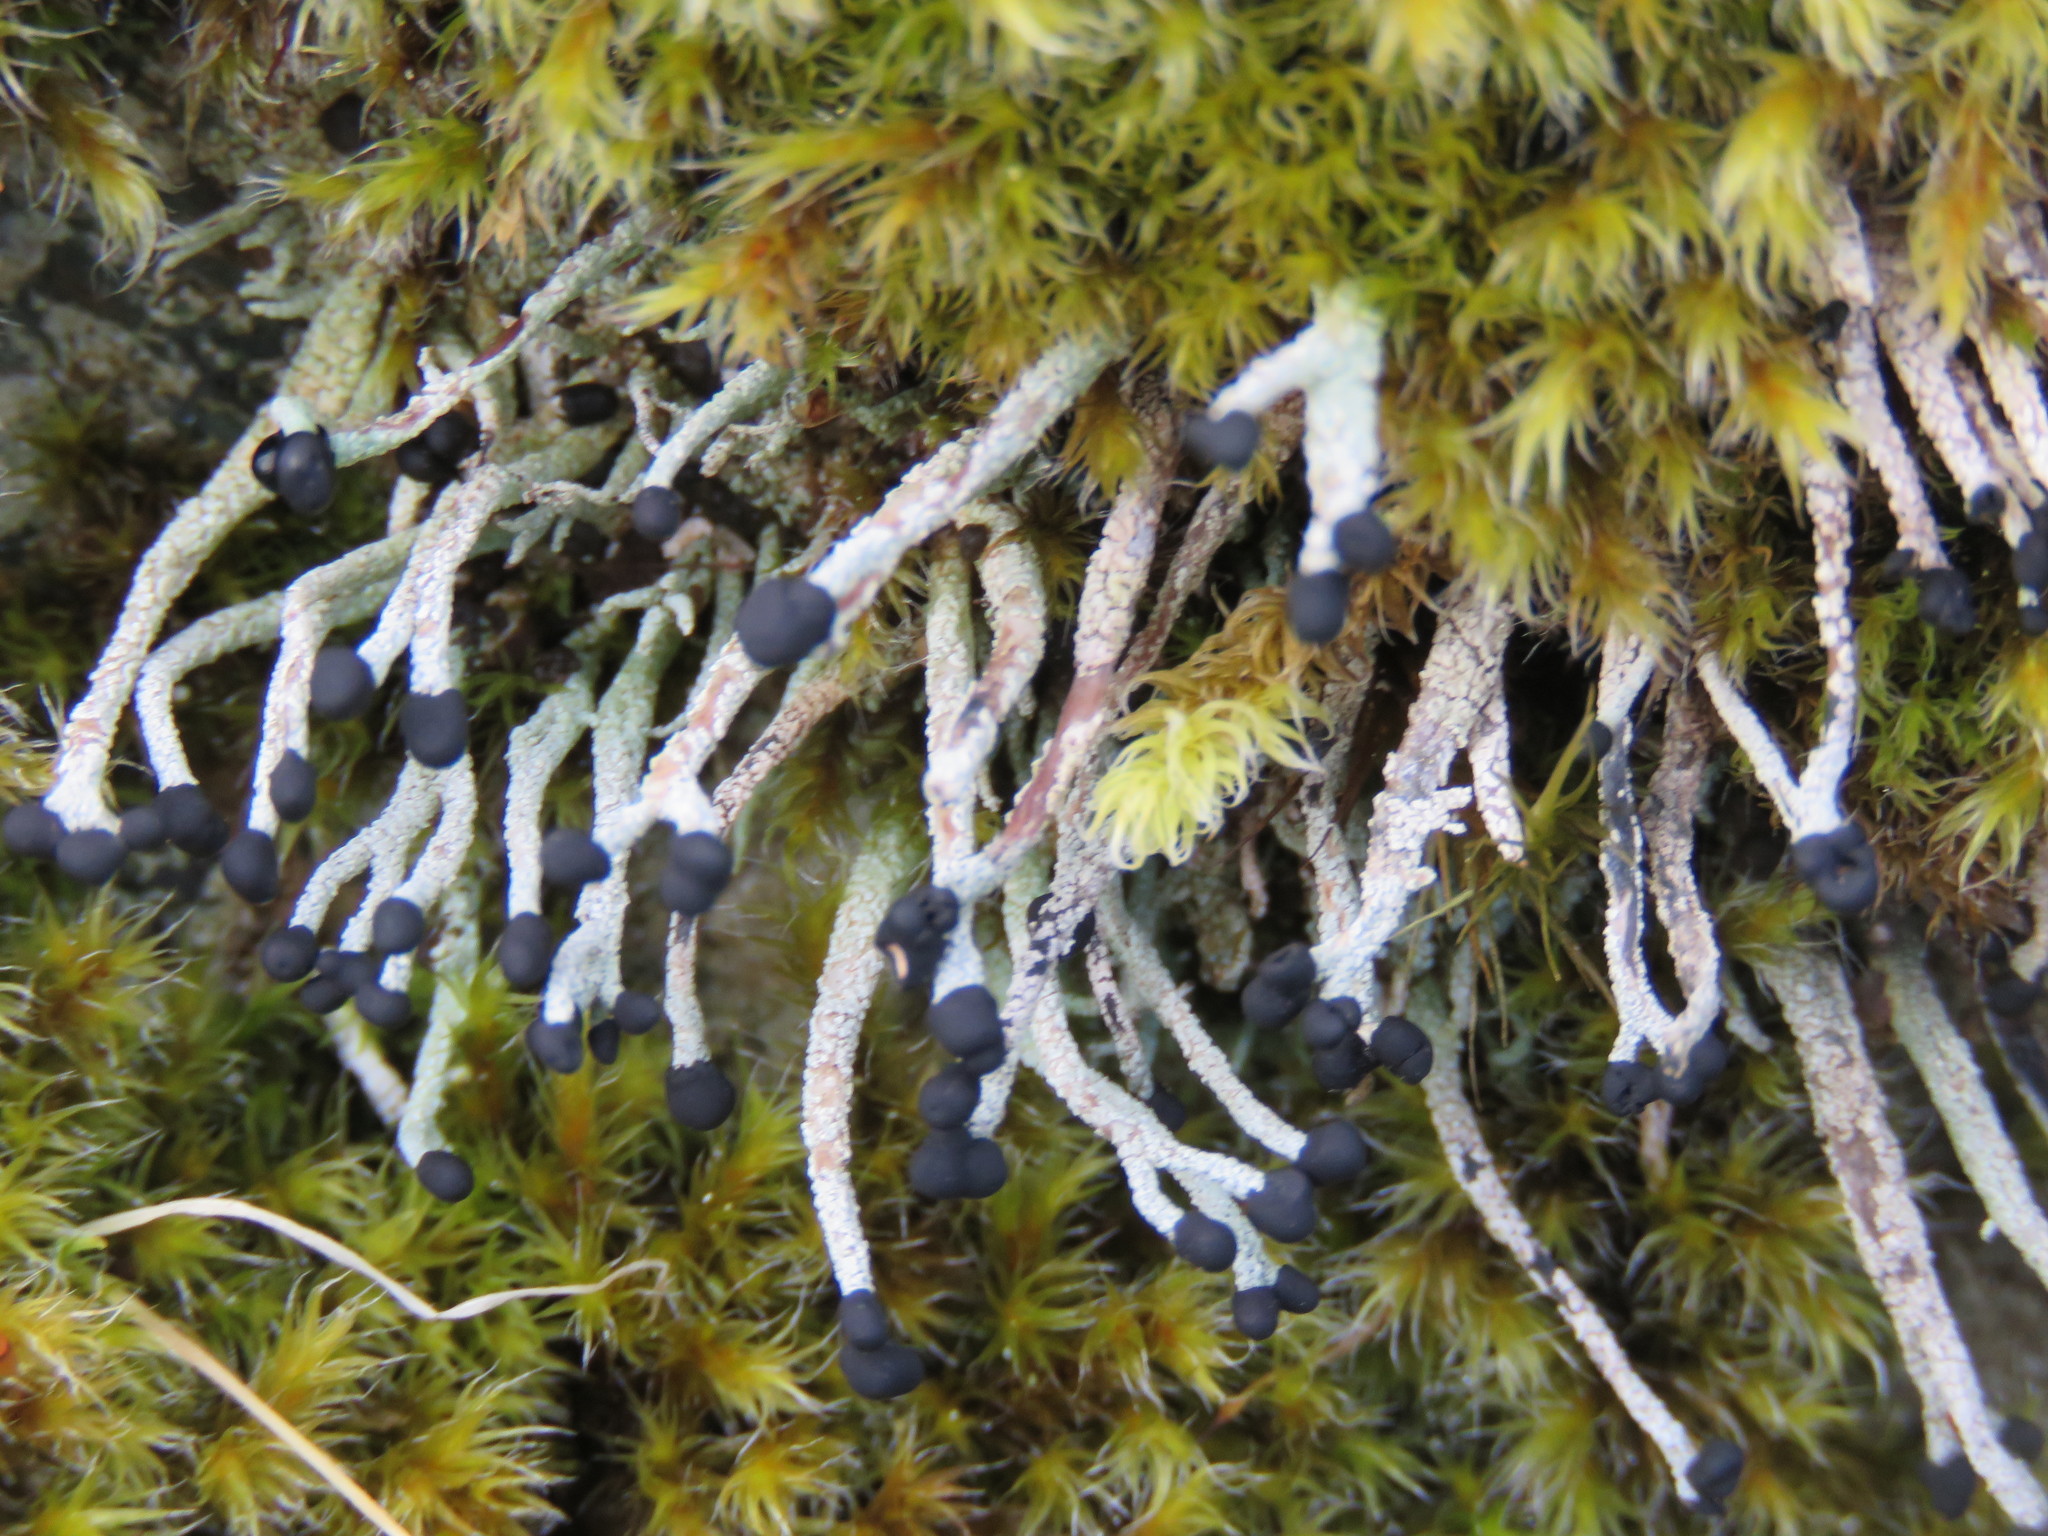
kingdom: Fungi
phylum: Ascomycota
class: Lecanoromycetes
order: Lecanorales
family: Cladoniaceae
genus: Pilophorus
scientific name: Pilophorus acicularis
